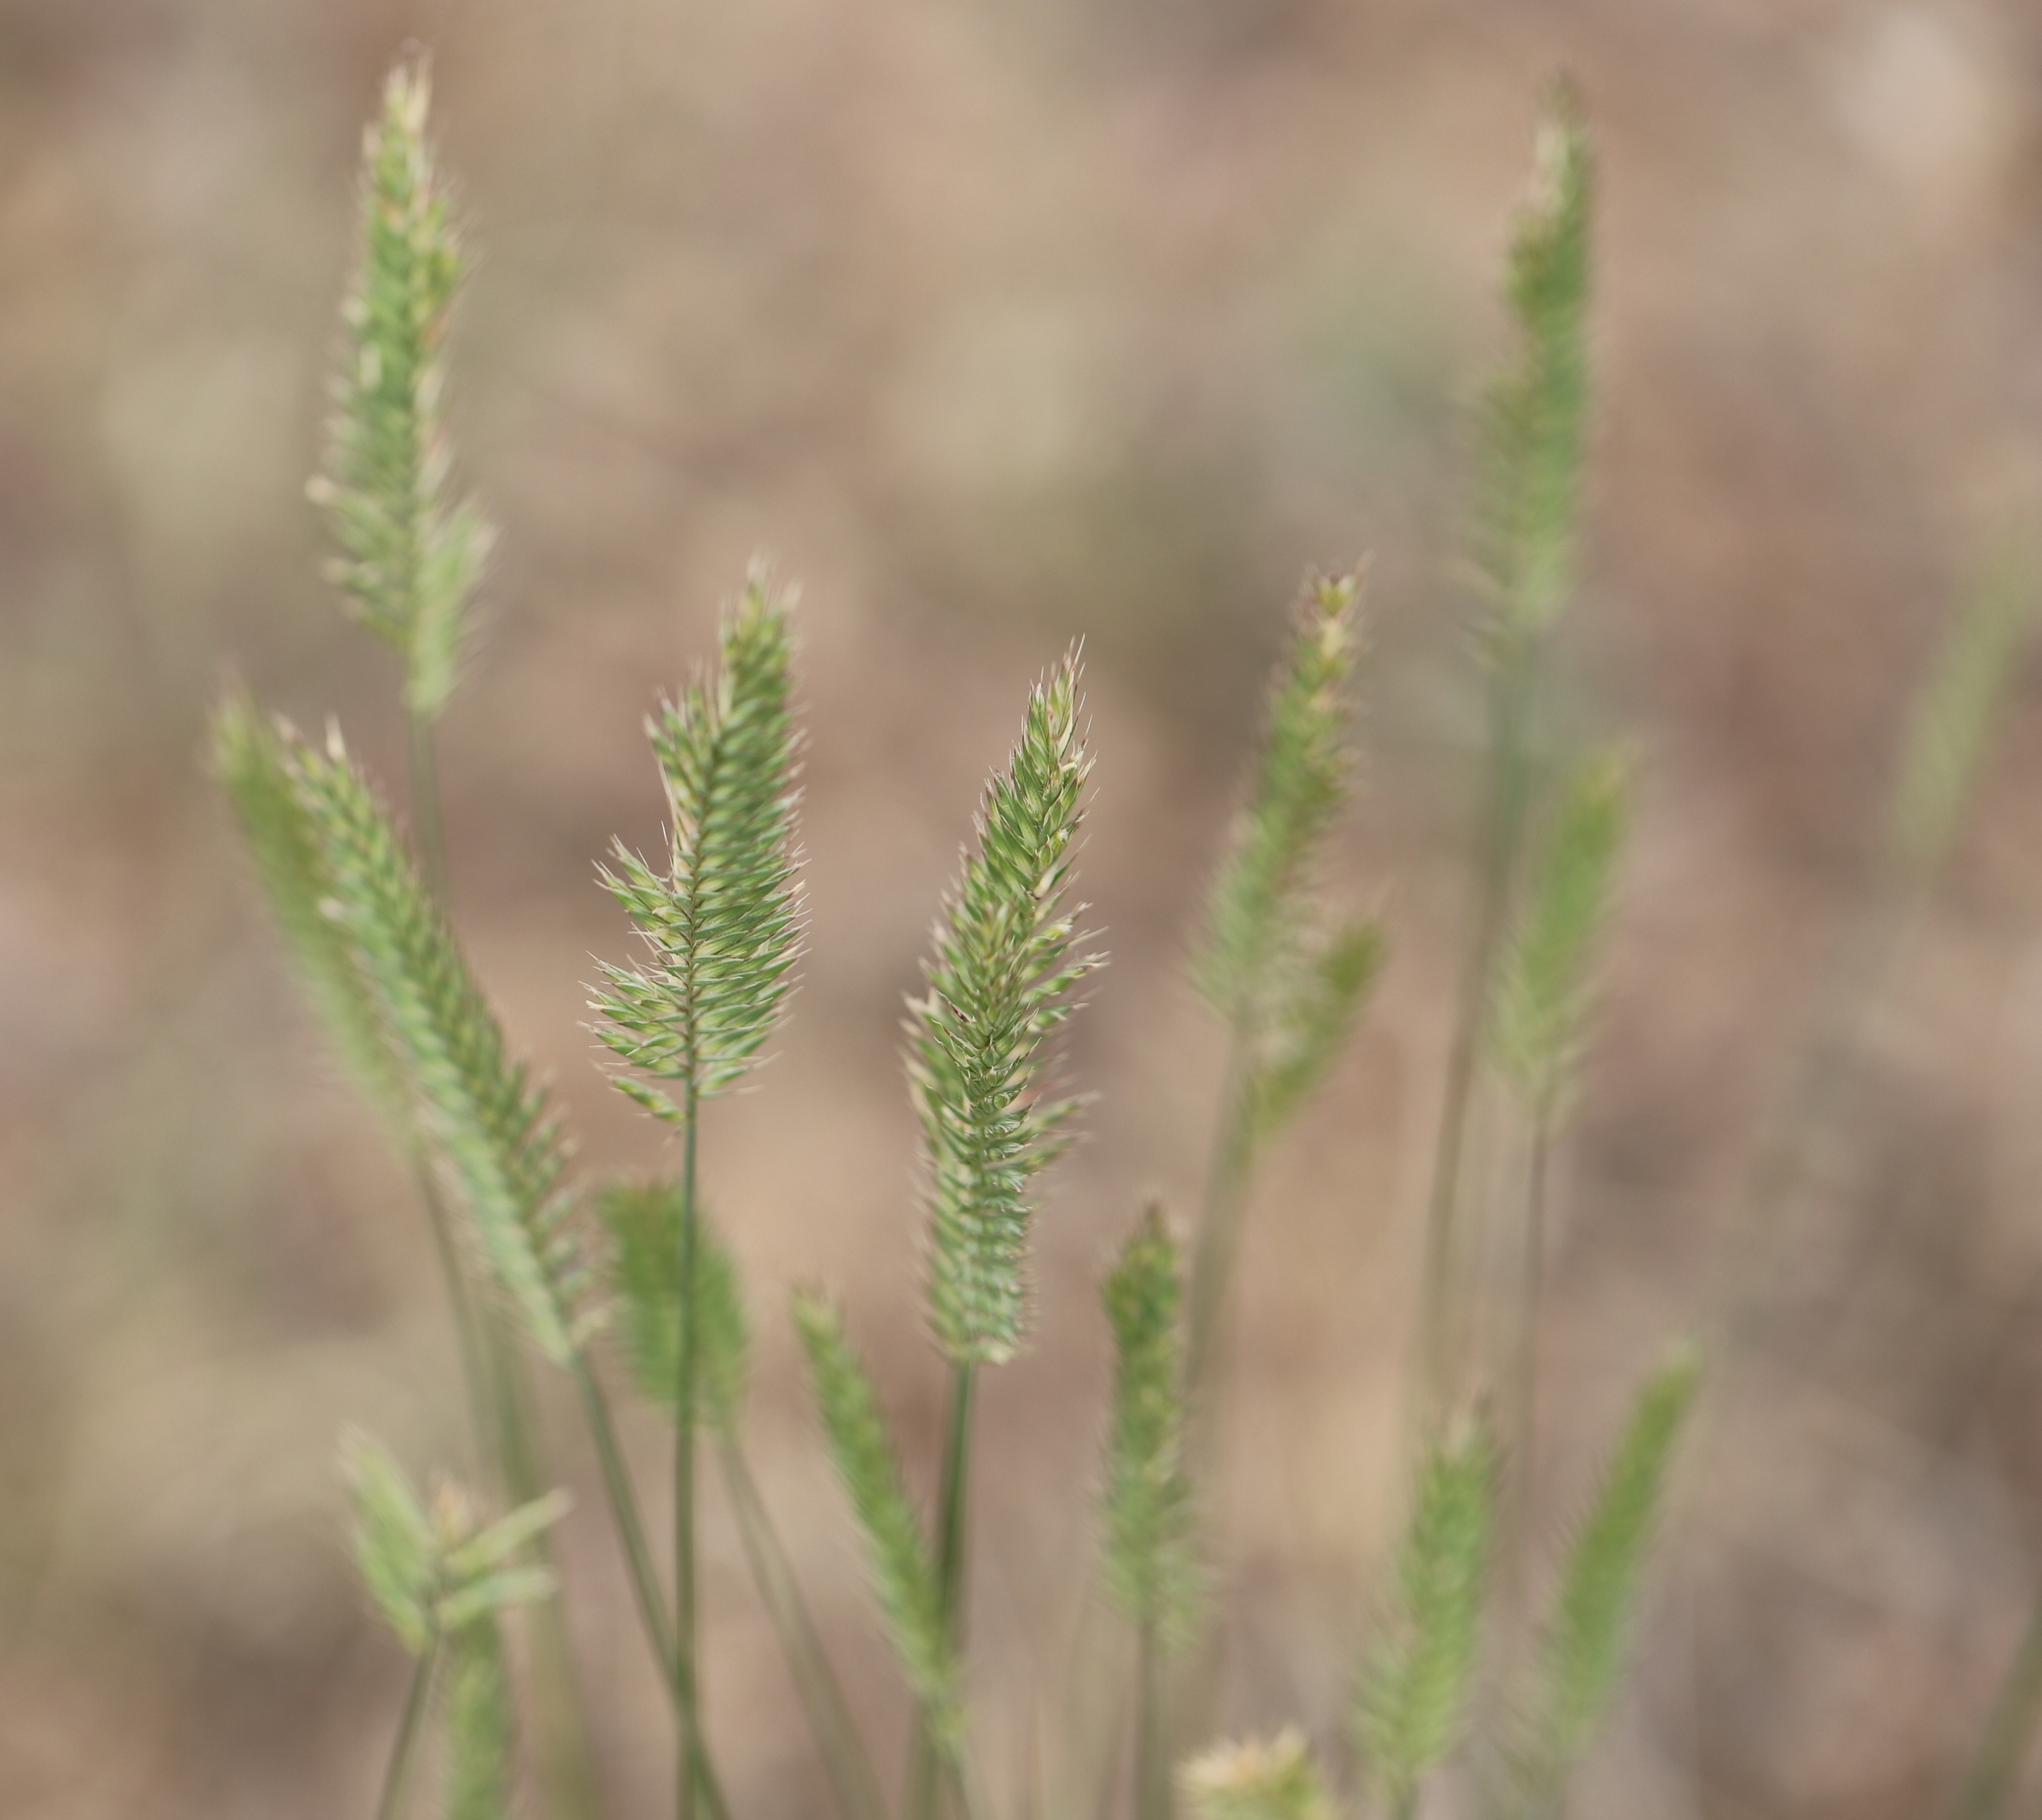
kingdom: Plantae
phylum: Tracheophyta
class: Liliopsida
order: Poales
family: Poaceae
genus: Agropyron
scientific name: Agropyron cristatum
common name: Crested wheatgrass
